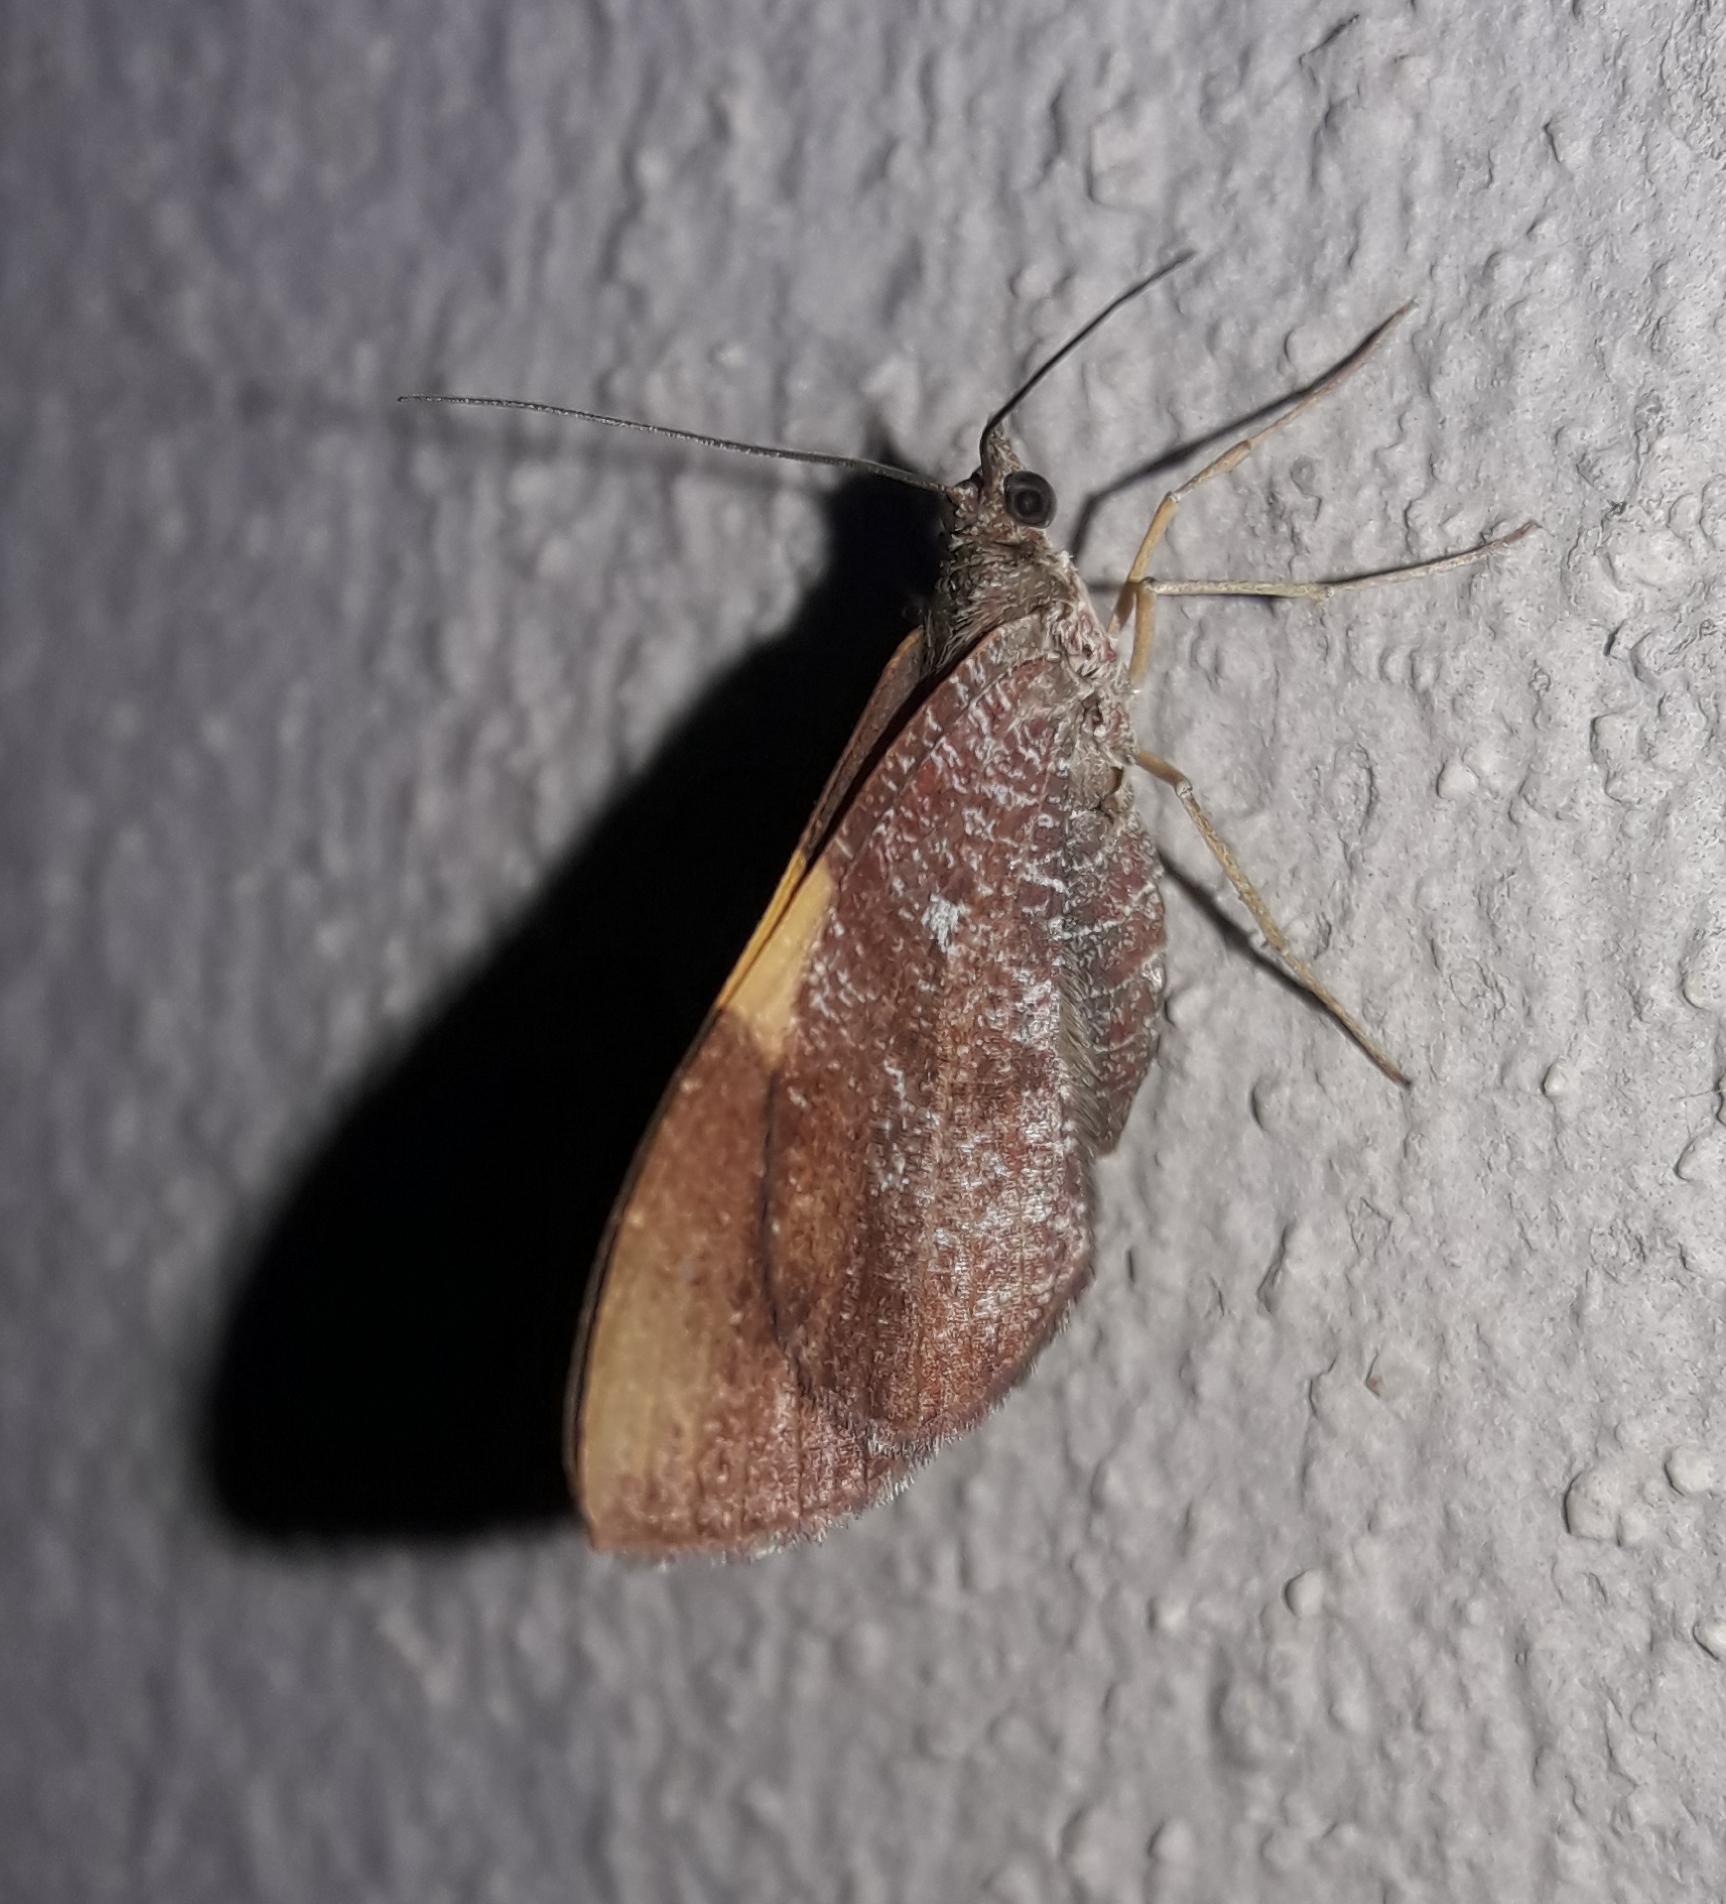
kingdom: Animalia
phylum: Arthropoda
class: Insecta
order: Lepidoptera
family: Geometridae
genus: Hagnagora
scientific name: Hagnagora ephestris
